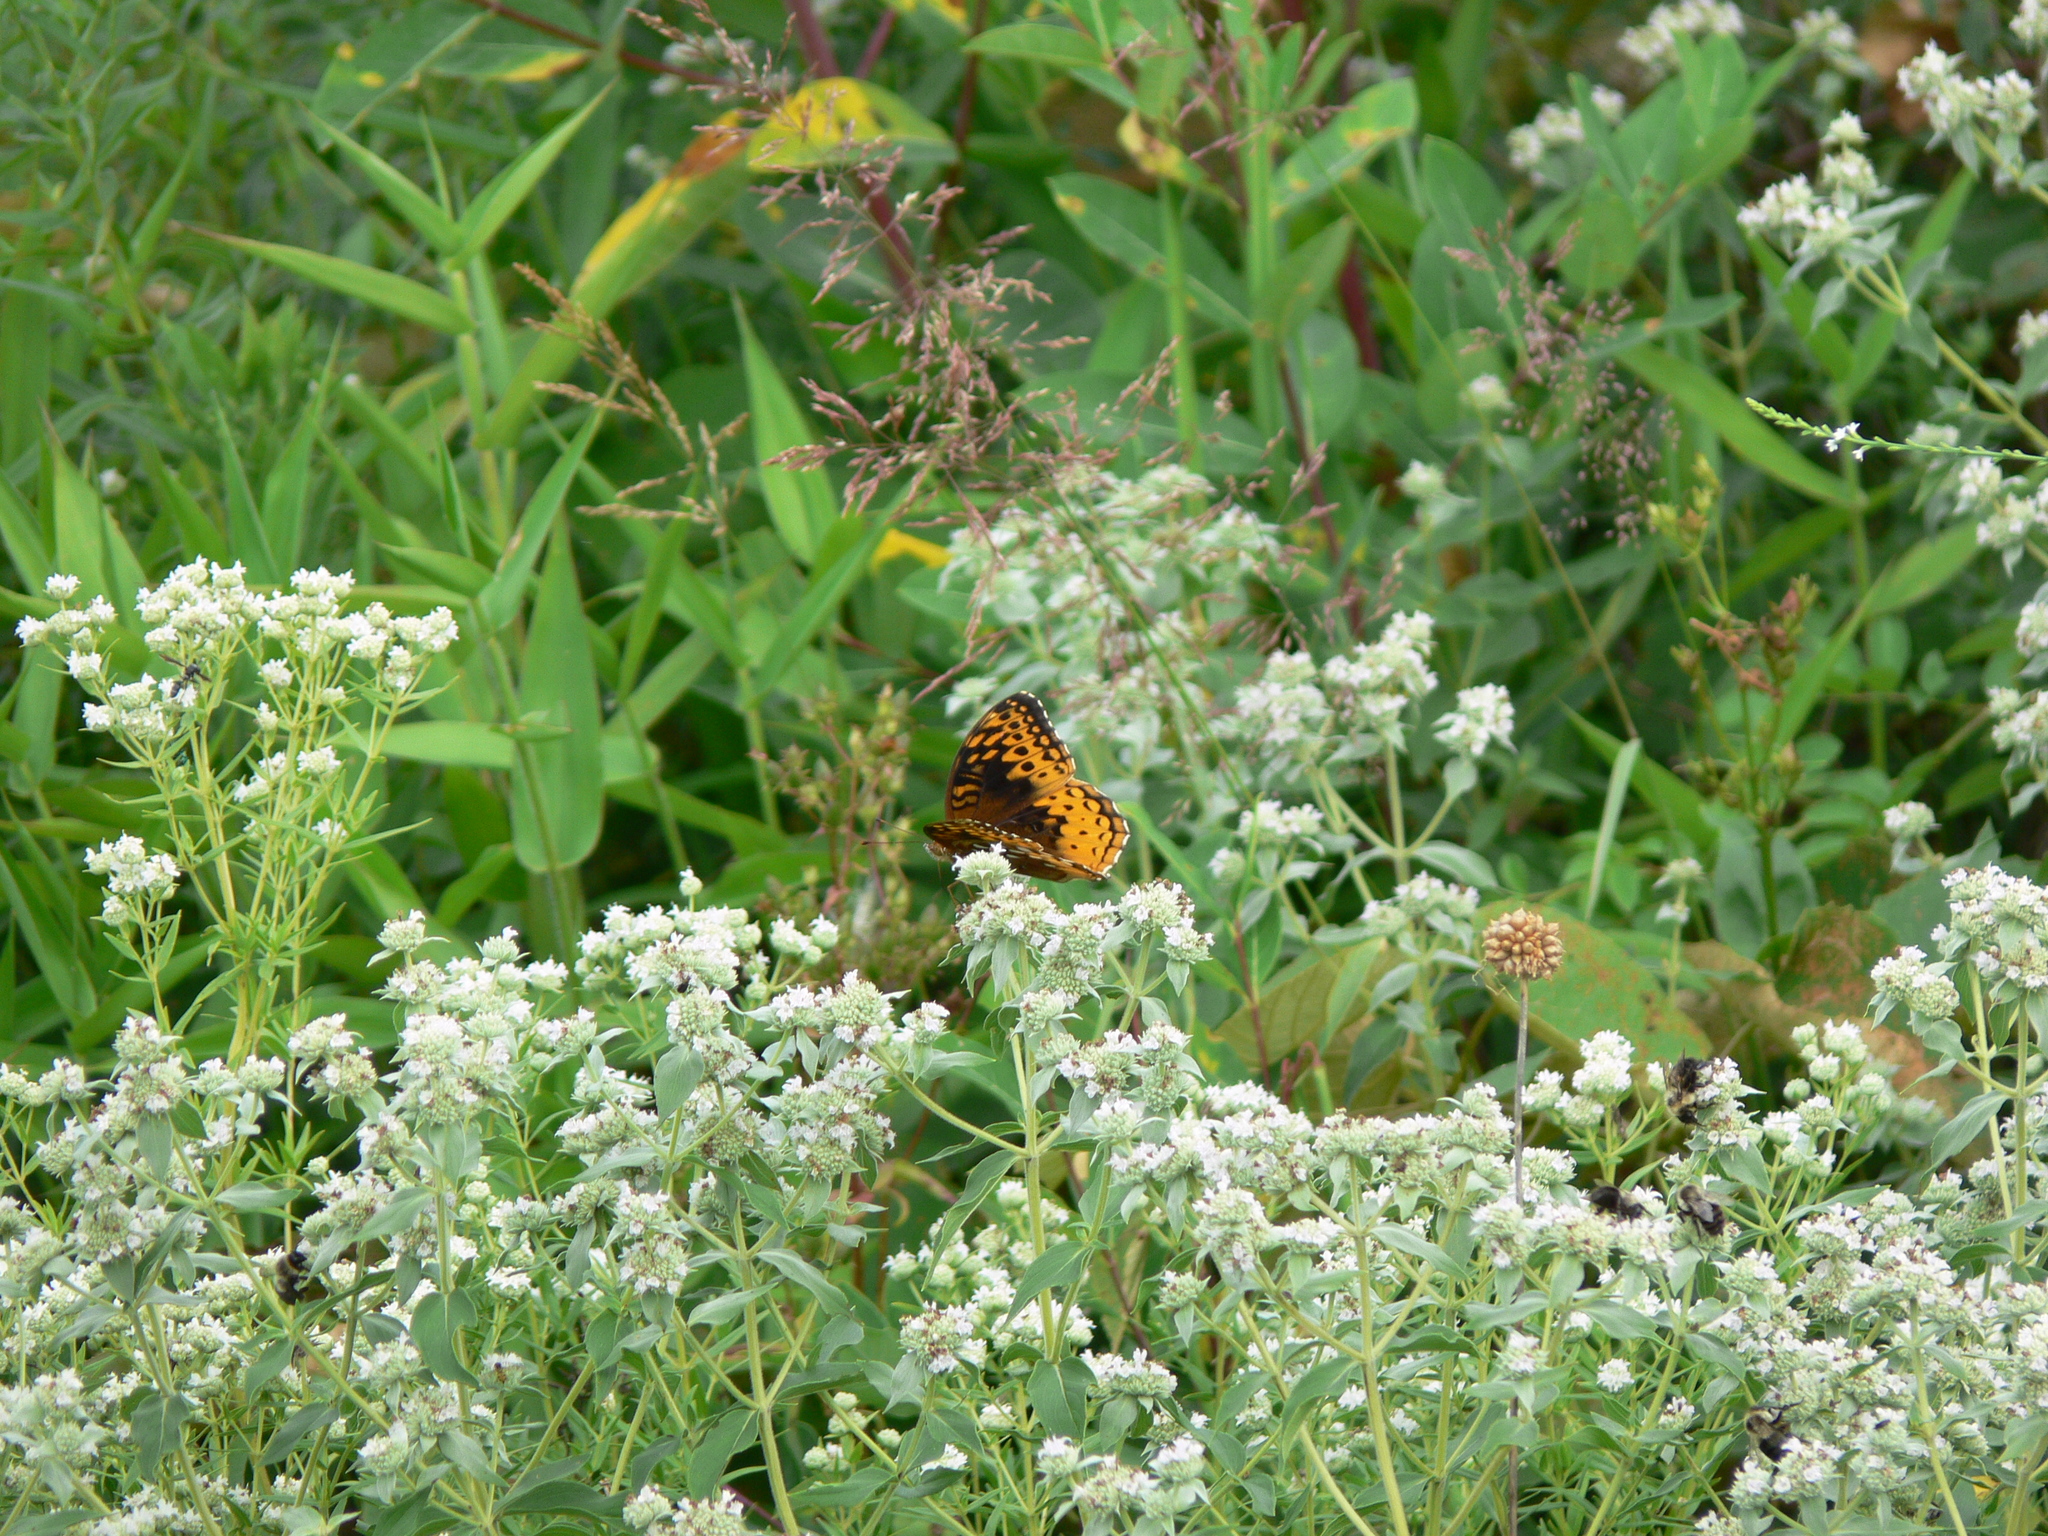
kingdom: Animalia
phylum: Arthropoda
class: Insecta
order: Lepidoptera
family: Nymphalidae
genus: Speyeria
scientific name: Speyeria cybele
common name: Great spangled fritillary
